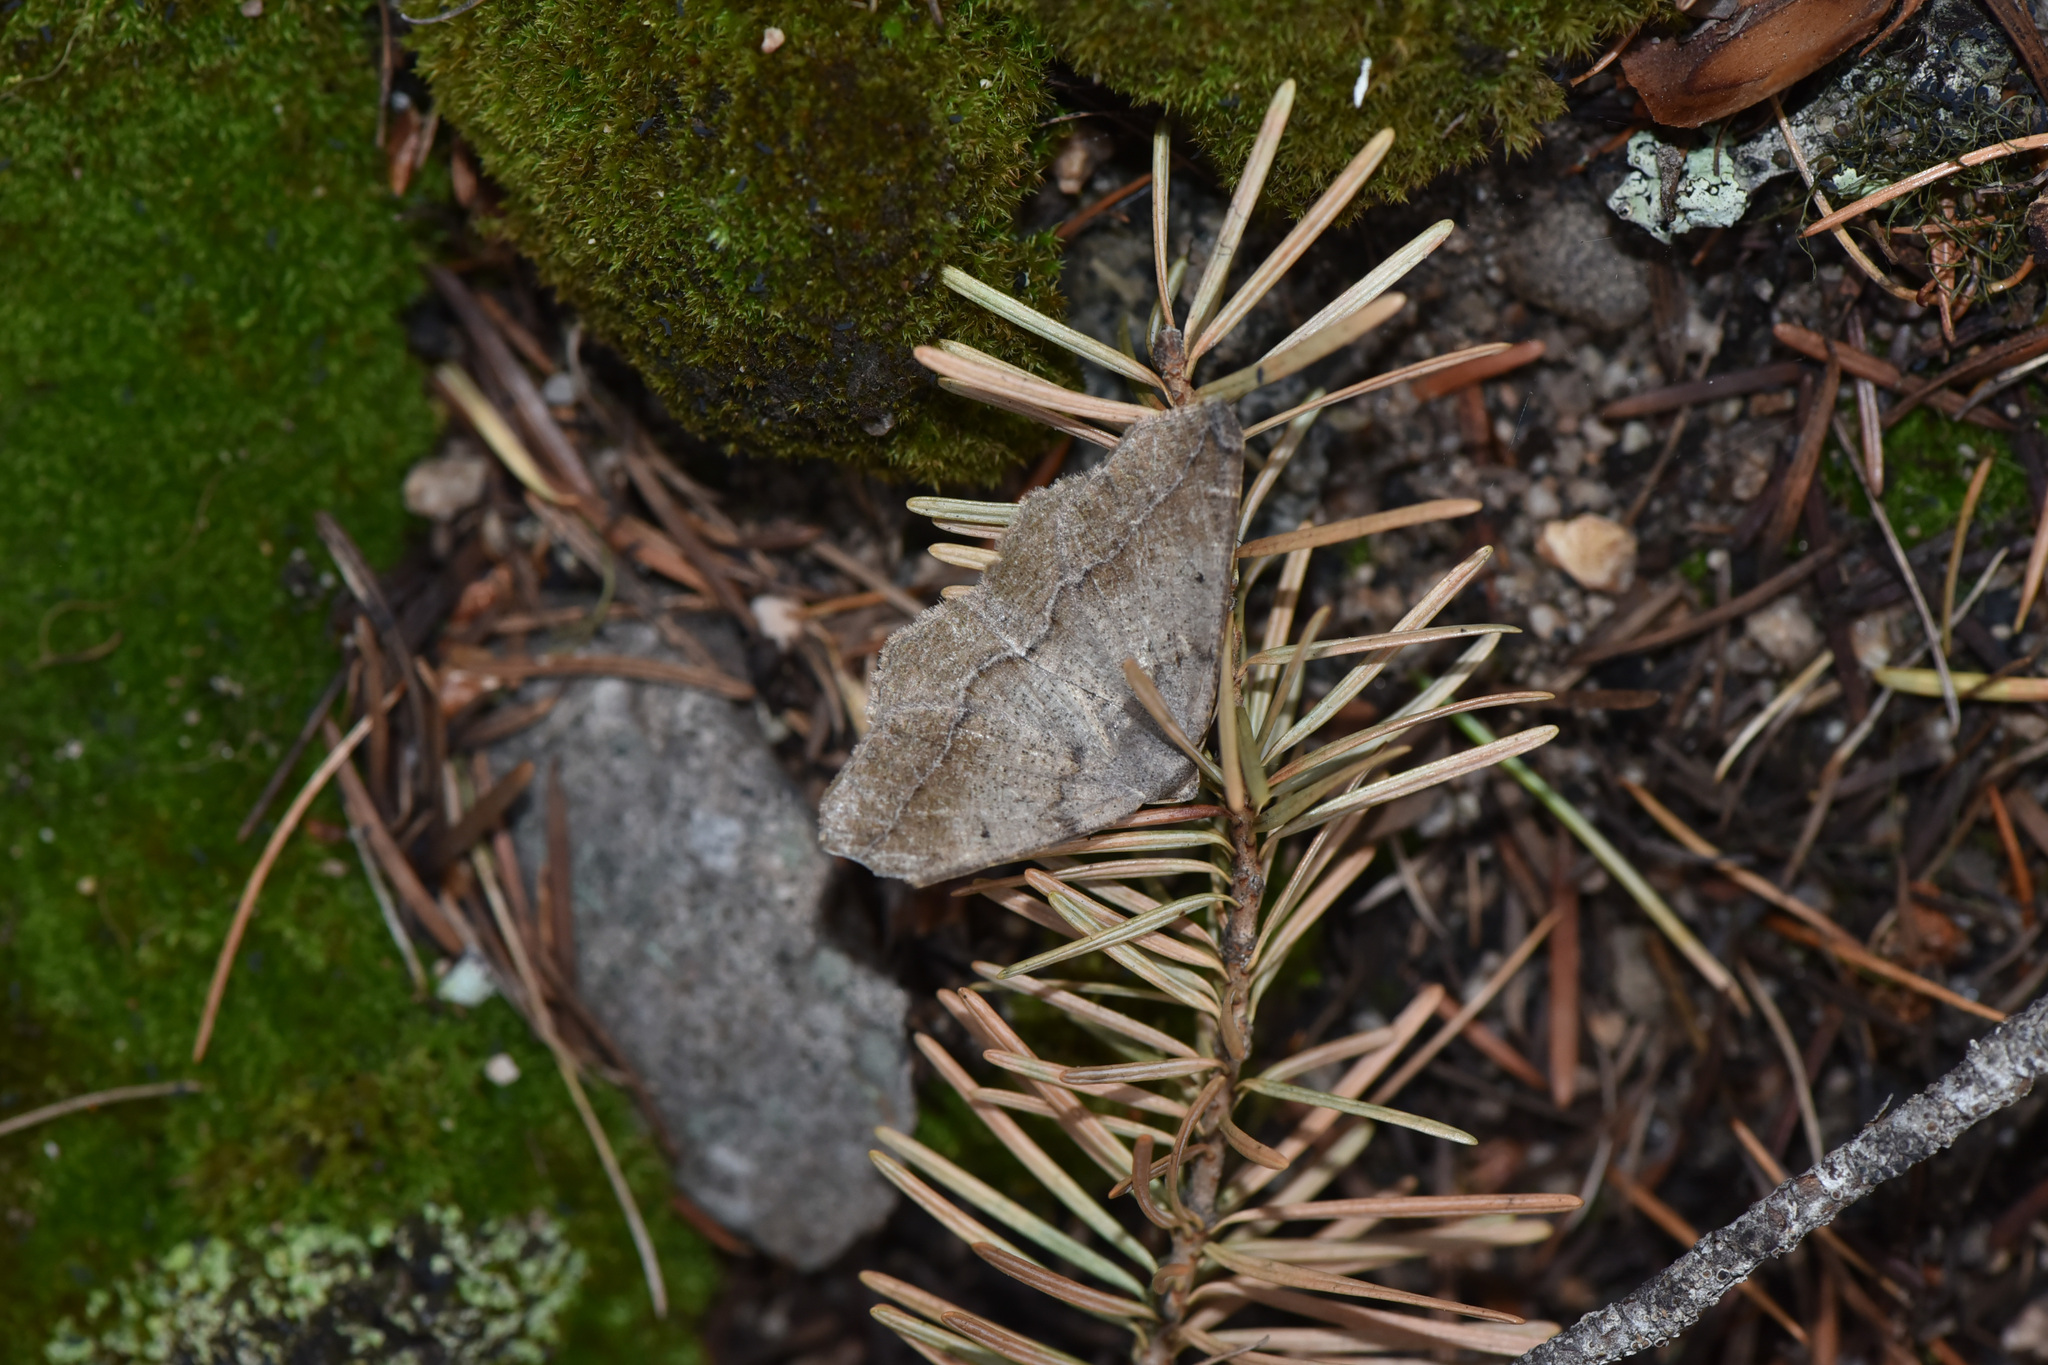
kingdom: Animalia
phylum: Arthropoda
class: Insecta
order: Lepidoptera
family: Geometridae
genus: Prochoerodes
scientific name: Prochoerodes forficaria
